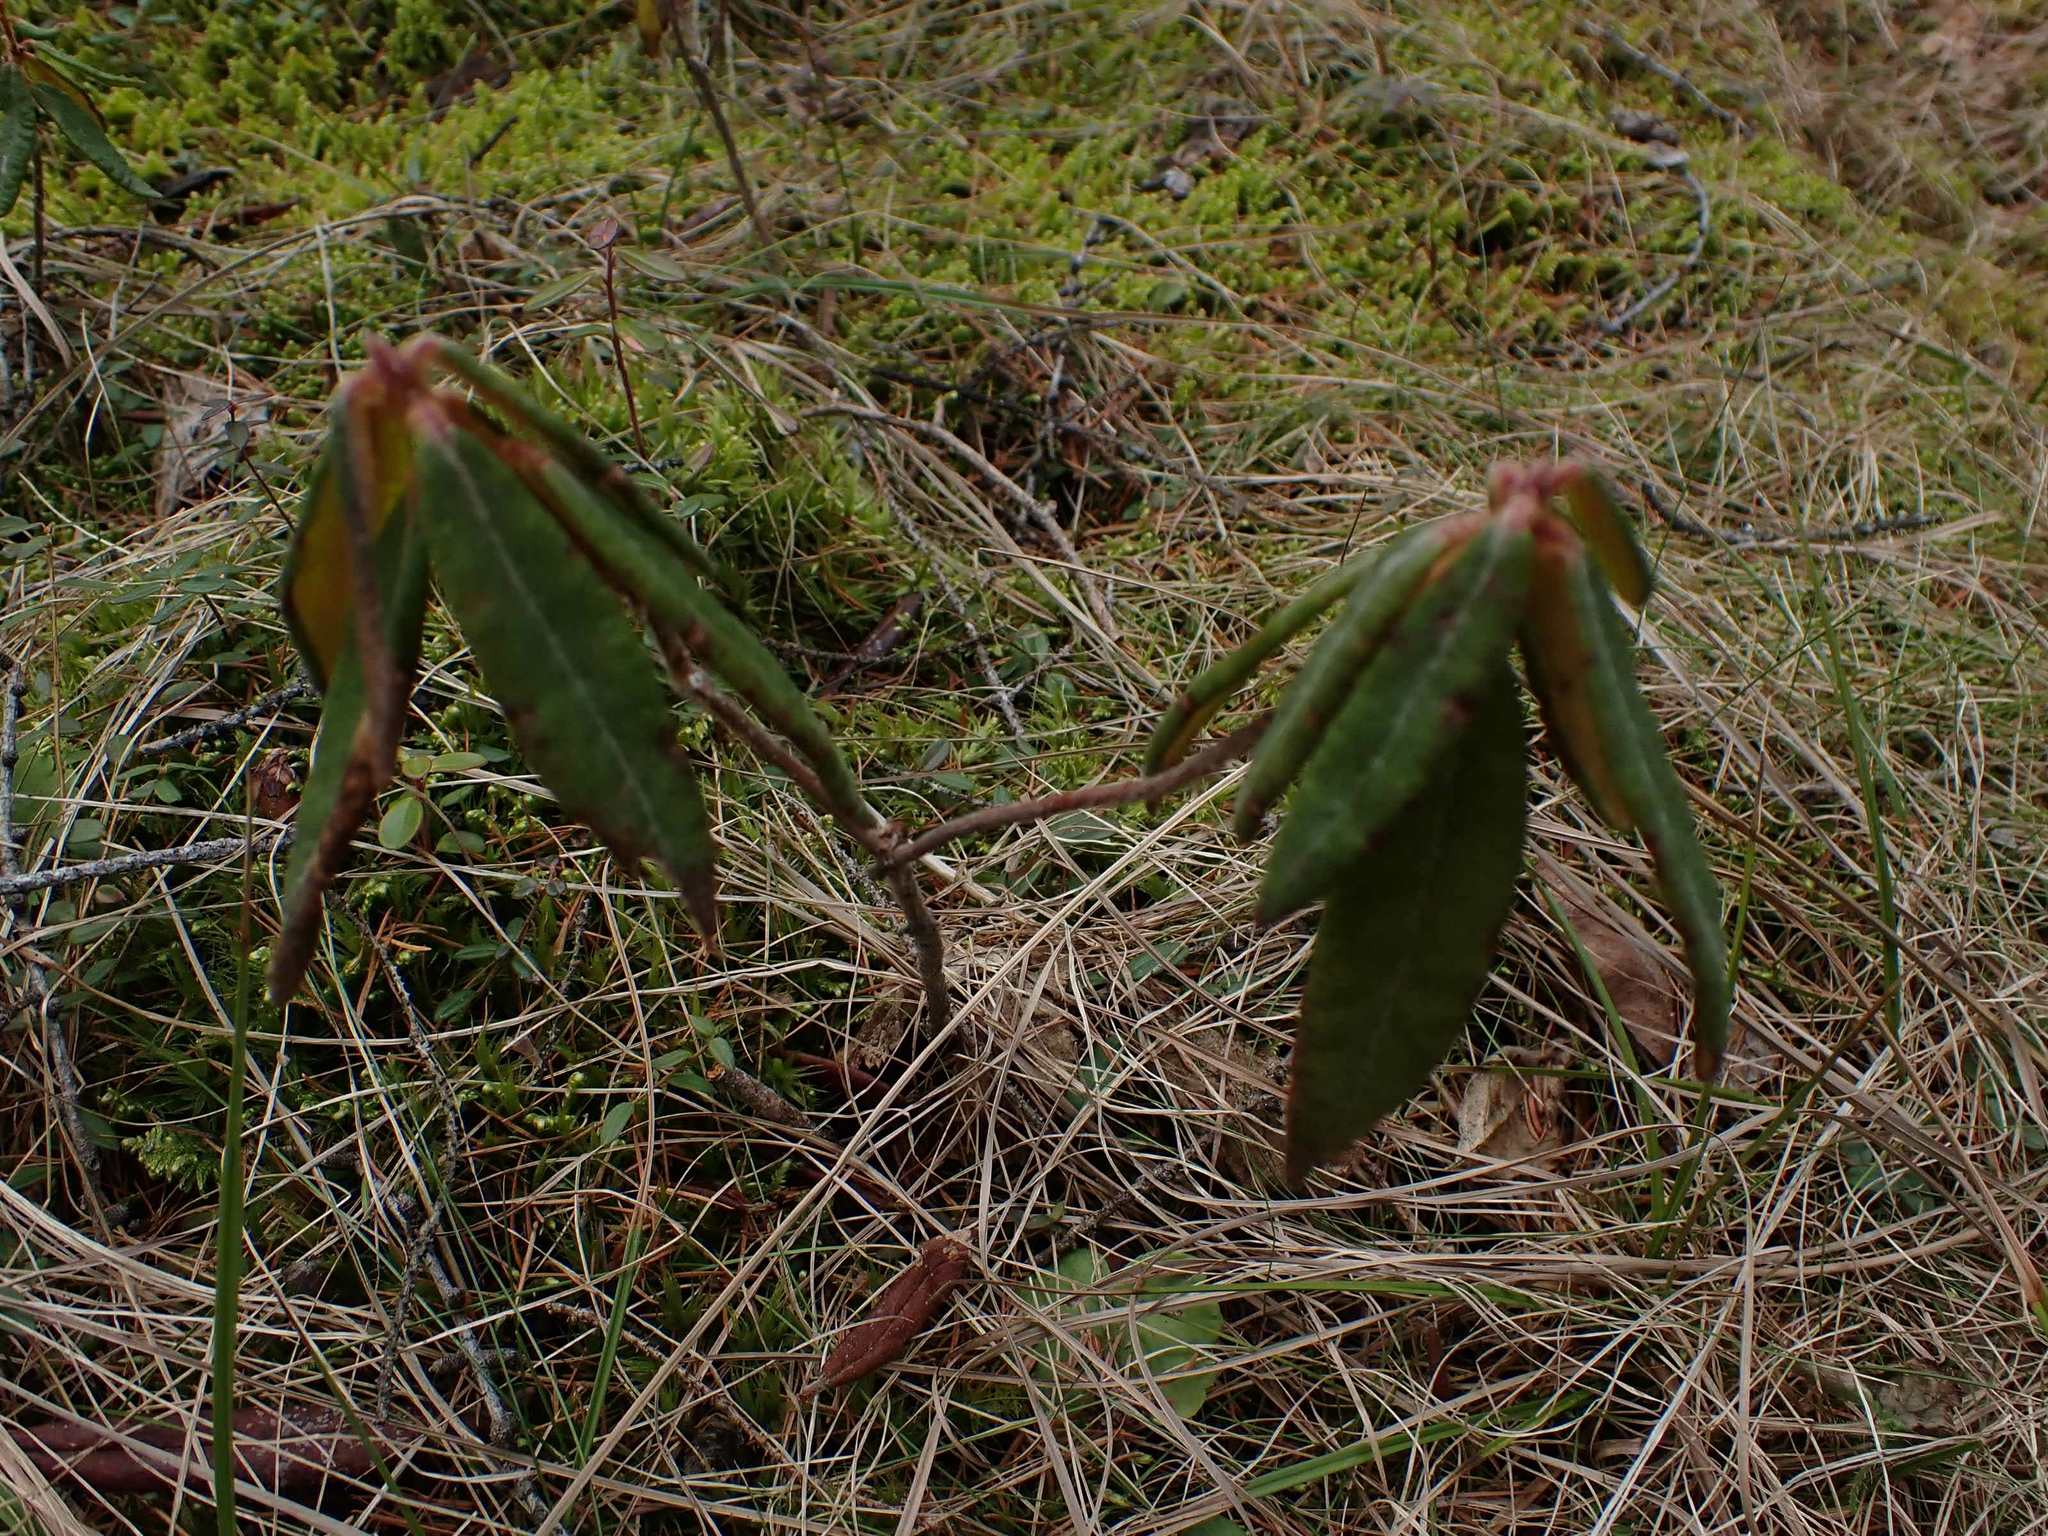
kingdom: Plantae
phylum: Tracheophyta
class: Magnoliopsida
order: Ericales
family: Ericaceae
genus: Rhododendron
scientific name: Rhododendron groenlandicum
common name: Bog labrador tea
